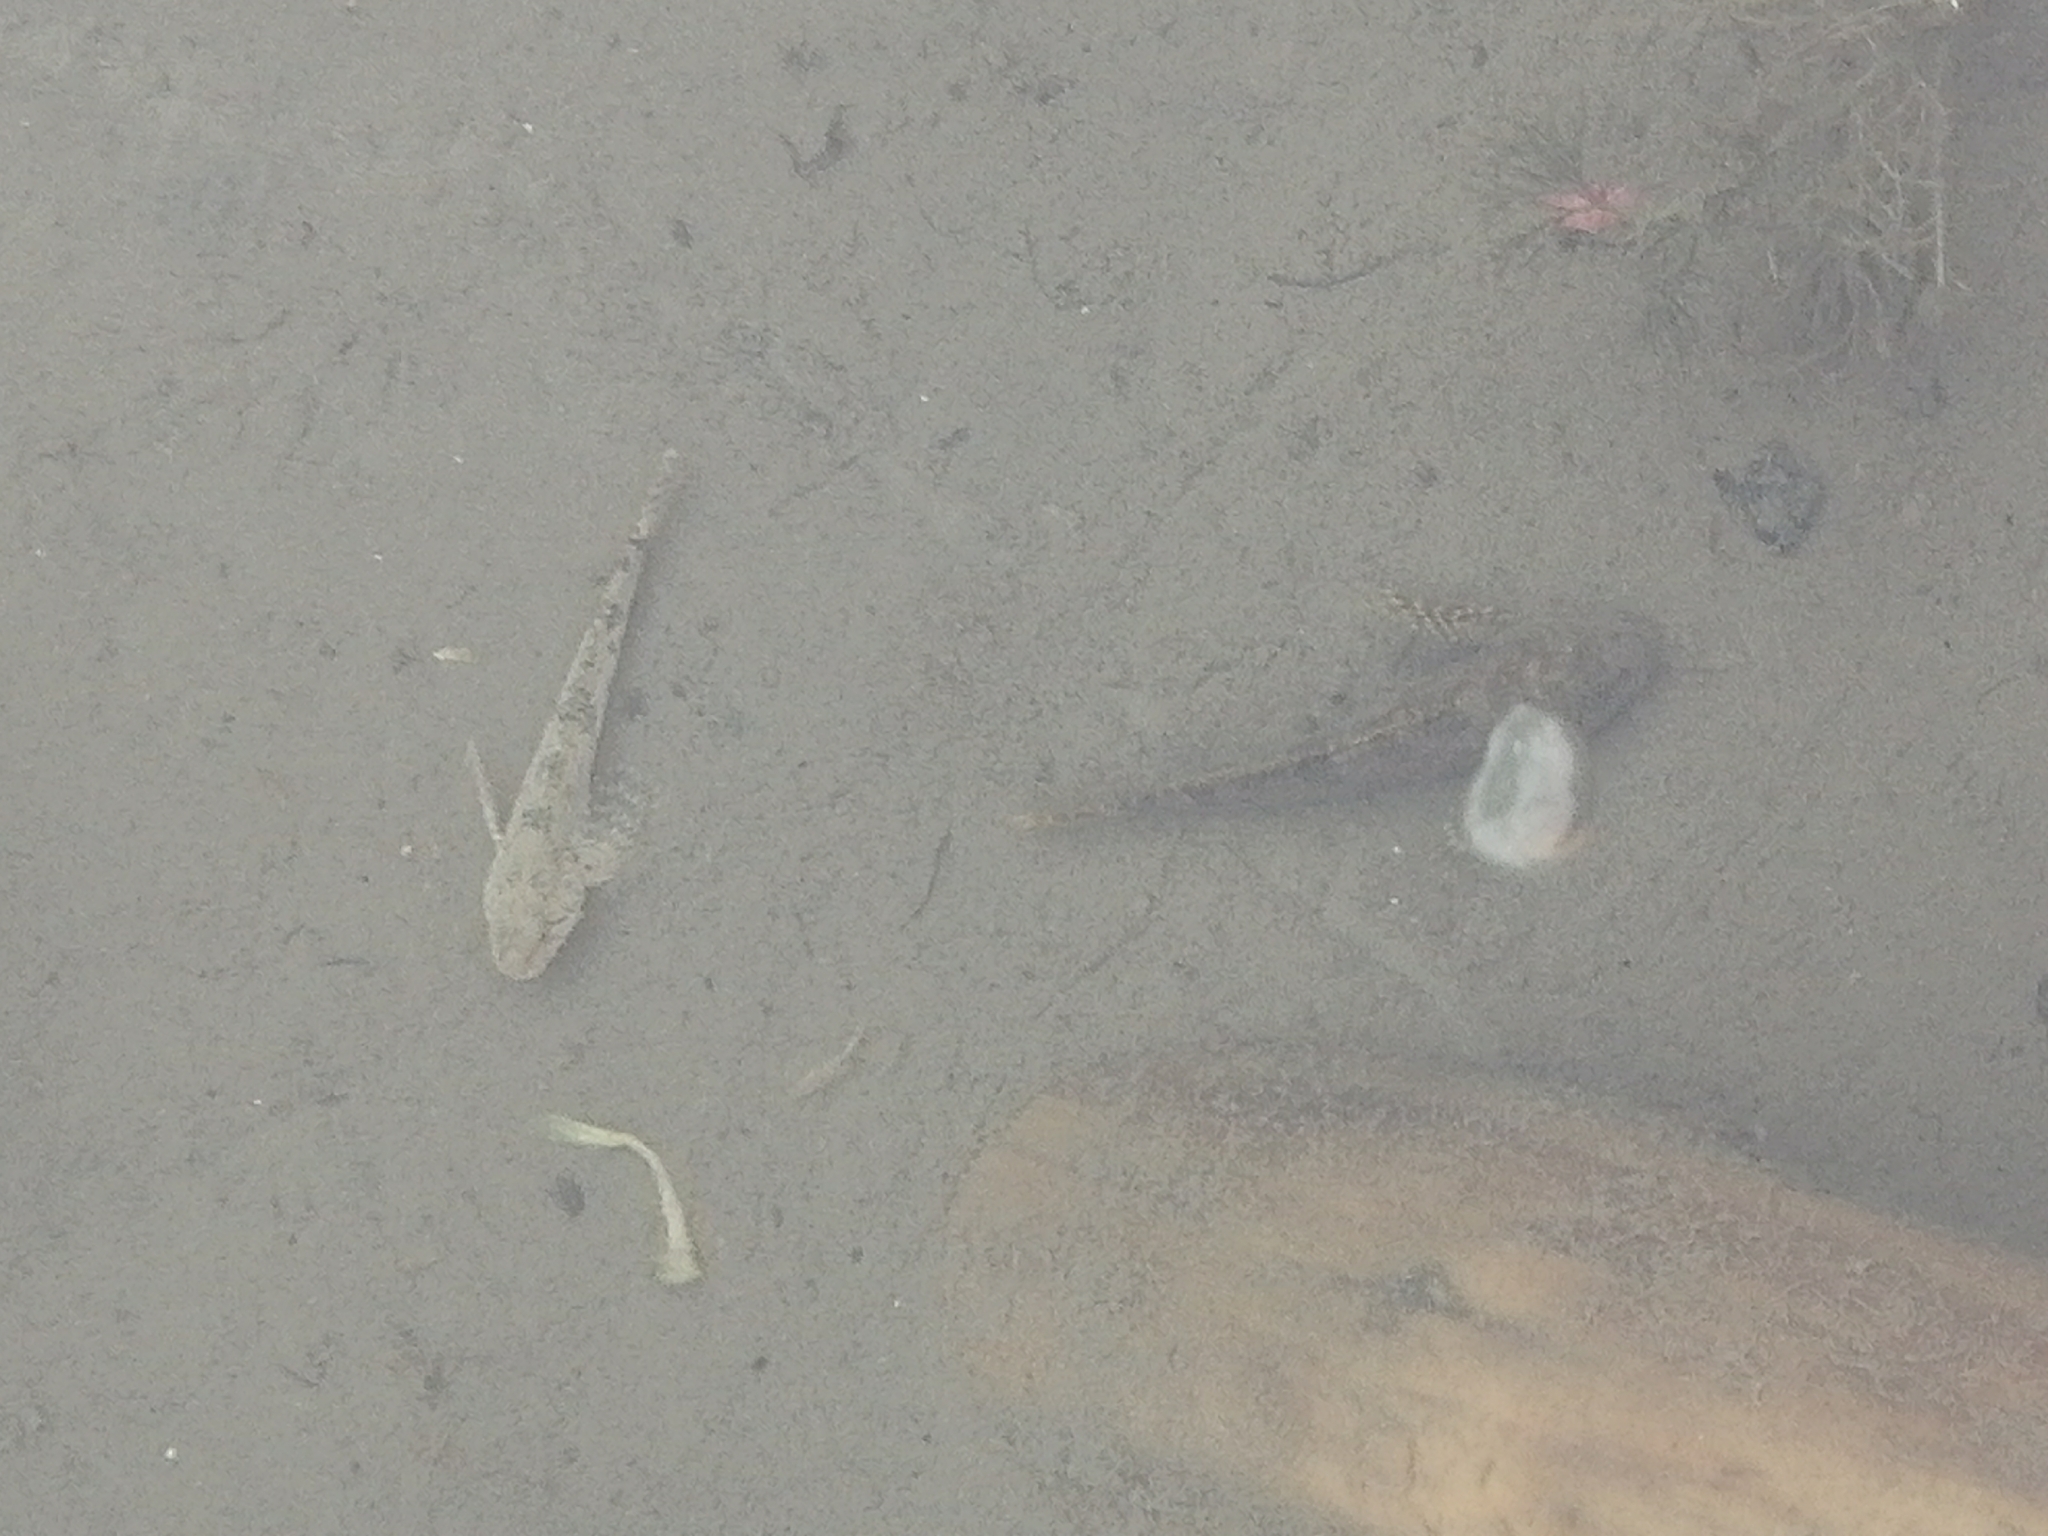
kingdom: Animalia
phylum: Chordata
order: Scorpaeniformes
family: Cottidae
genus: Cottus
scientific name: Cottus altaicus
